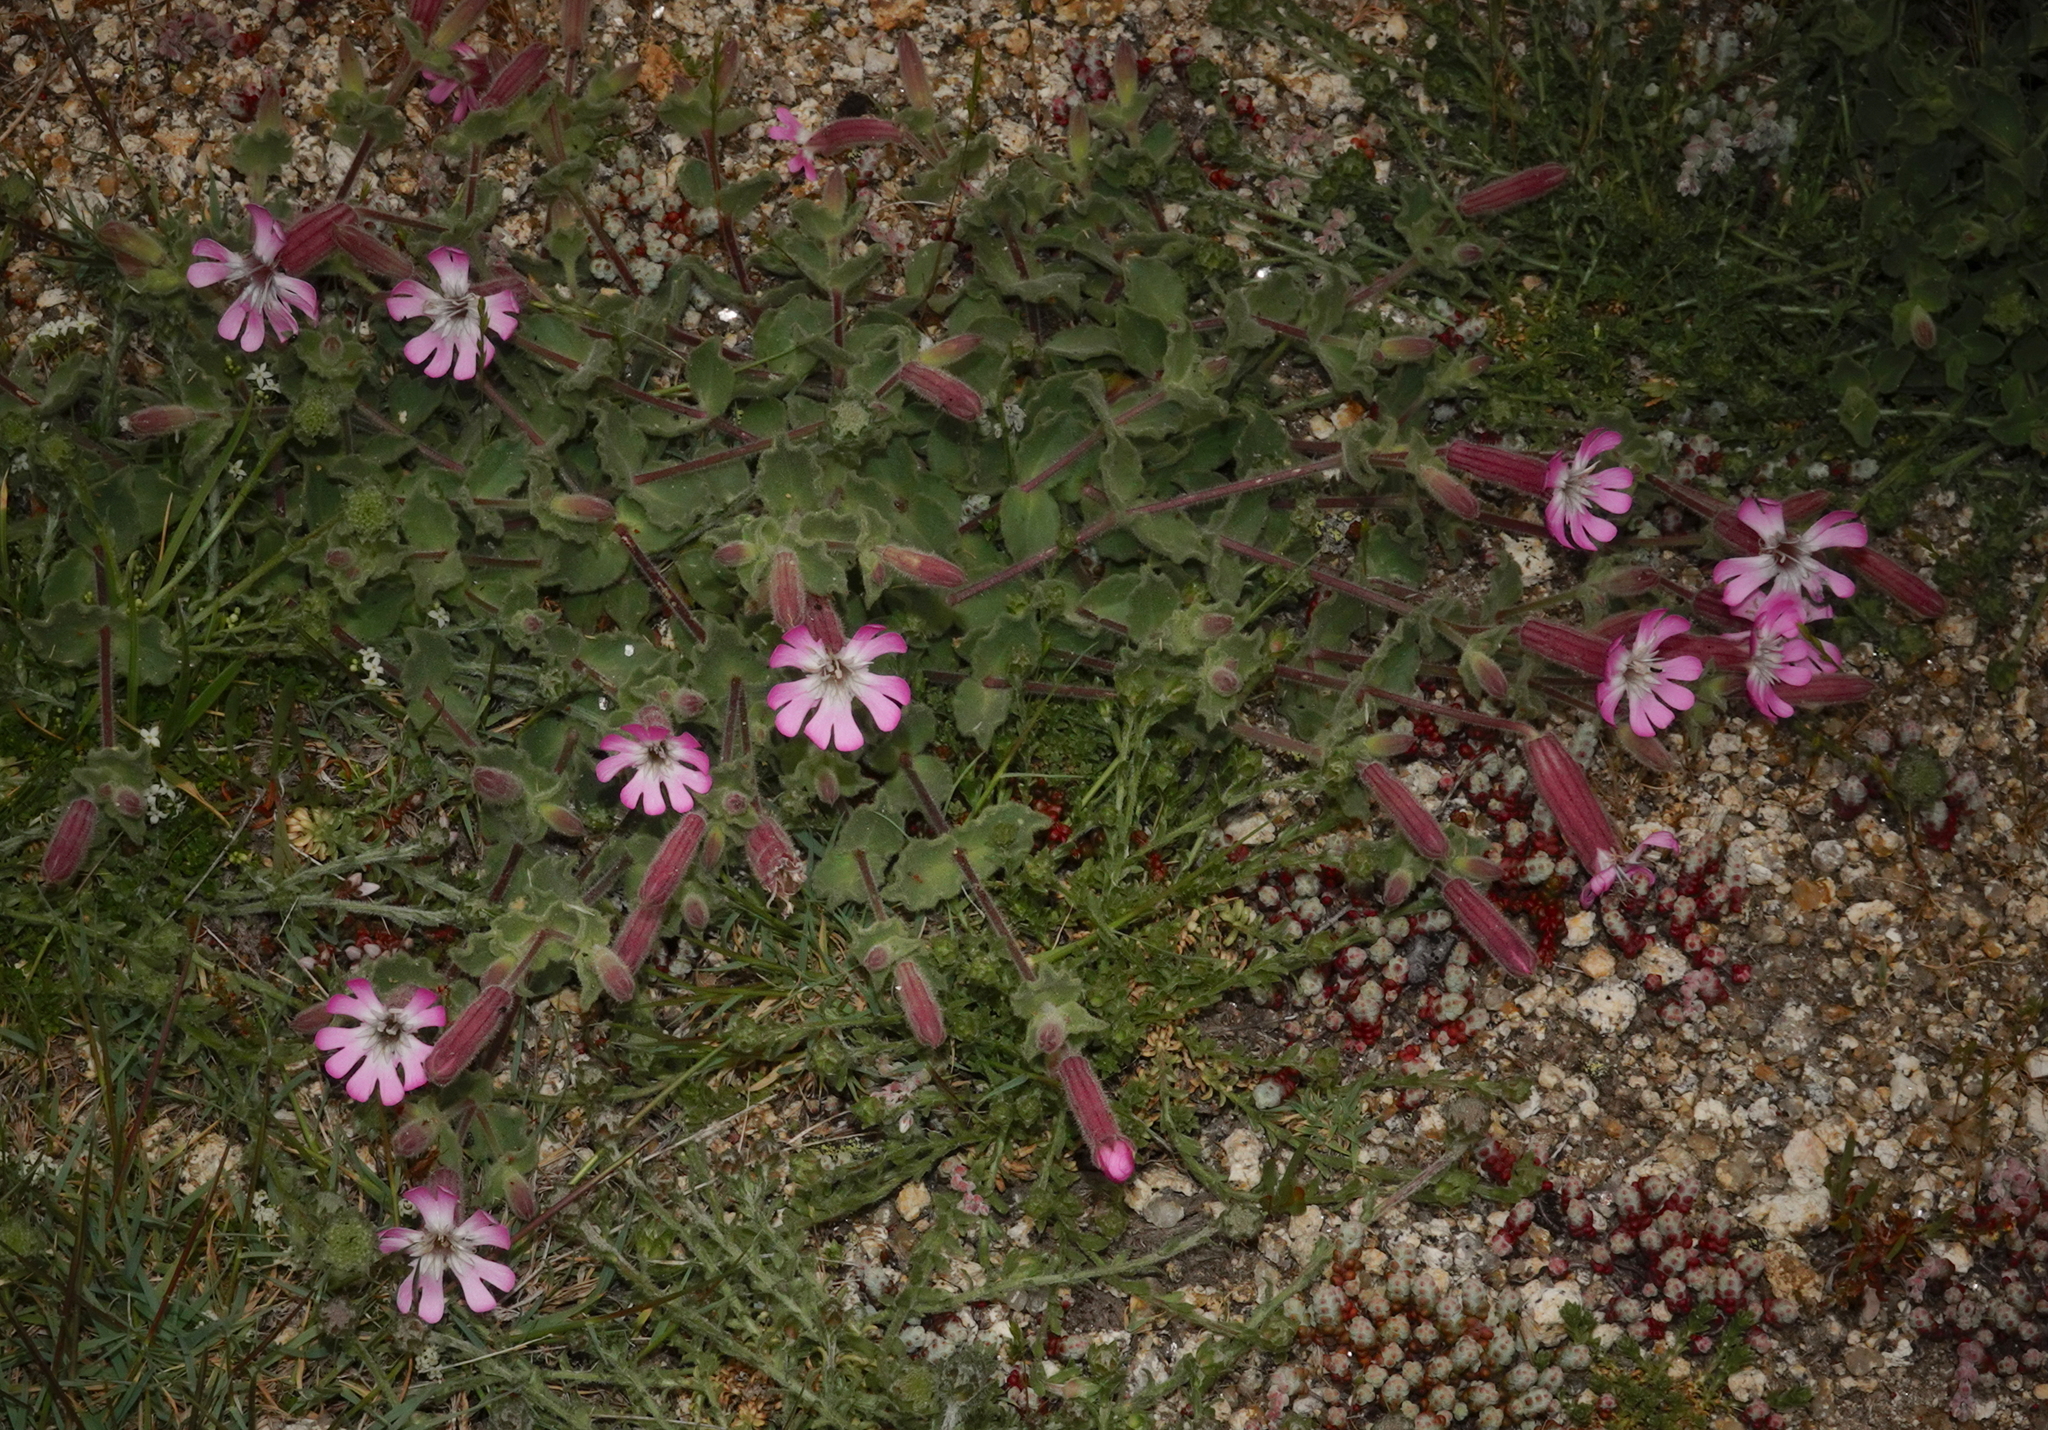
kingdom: Plantae
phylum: Tracheophyta
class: Magnoliopsida
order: Caryophyllales
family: Caryophyllaceae
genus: Silene
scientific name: Silene foetida
